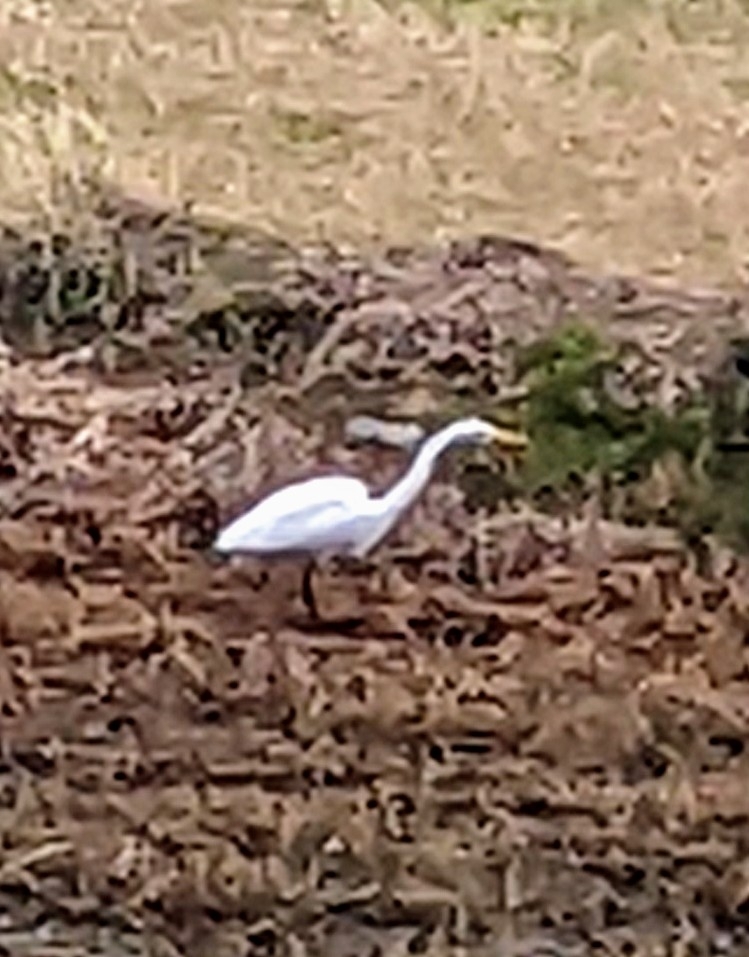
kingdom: Animalia
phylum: Chordata
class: Aves
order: Pelecaniformes
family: Ardeidae
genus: Ardea
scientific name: Ardea alba
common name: Great egret
